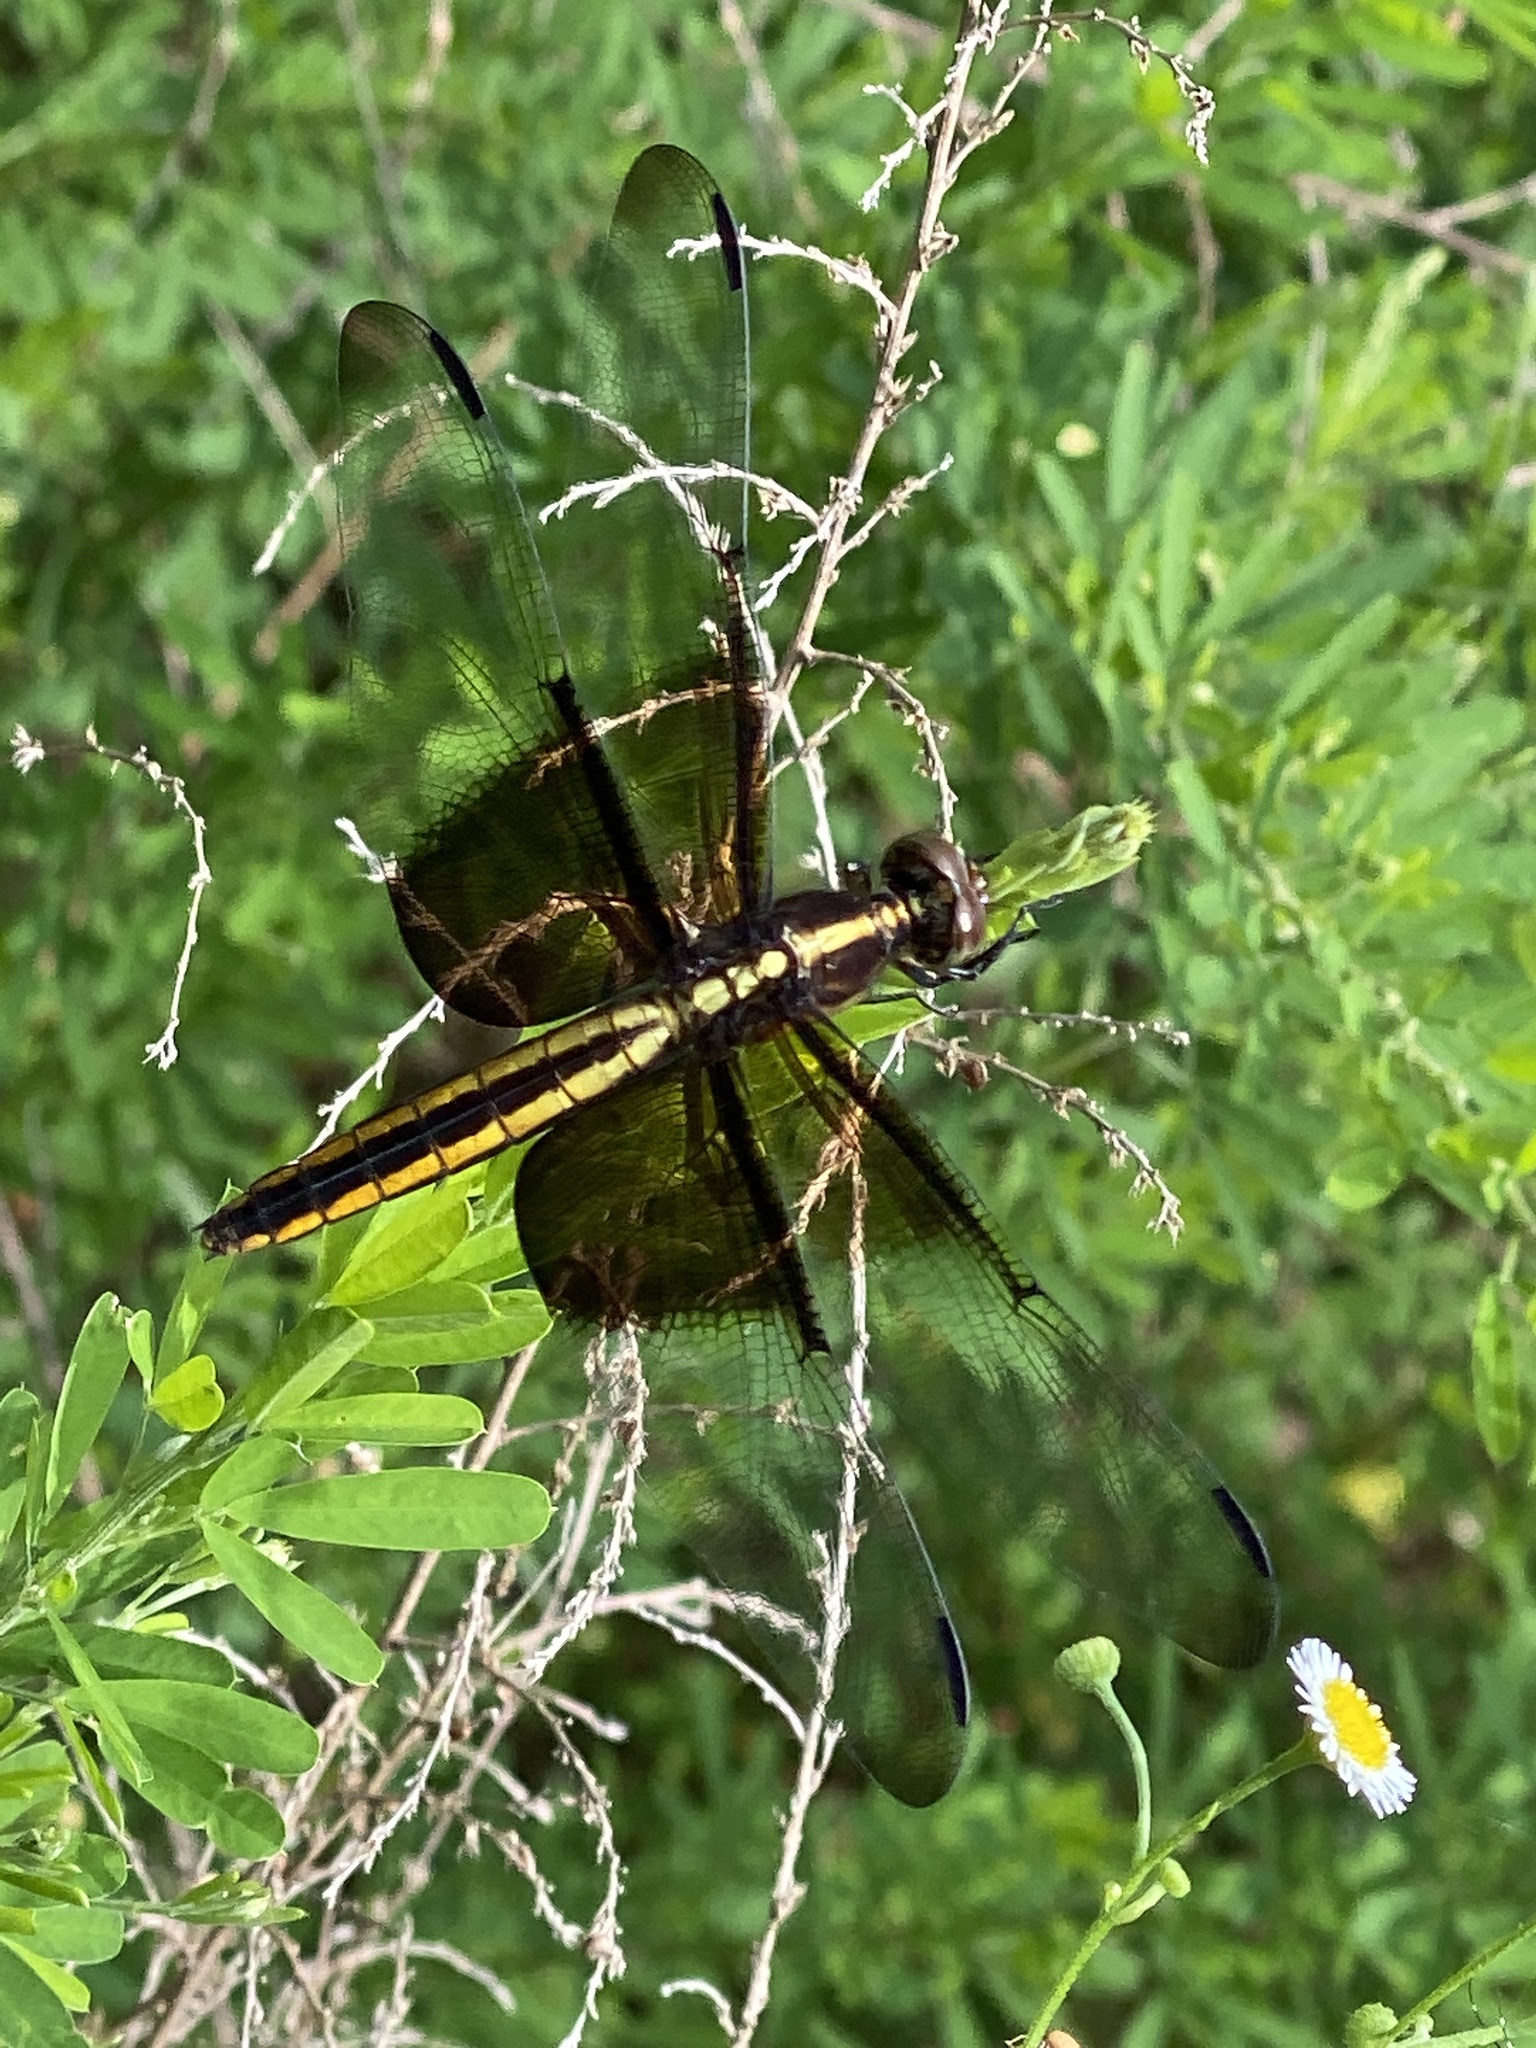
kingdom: Animalia
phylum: Arthropoda
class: Insecta
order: Odonata
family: Libellulidae
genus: Libellula
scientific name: Libellula luctuosa
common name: Widow skimmer
